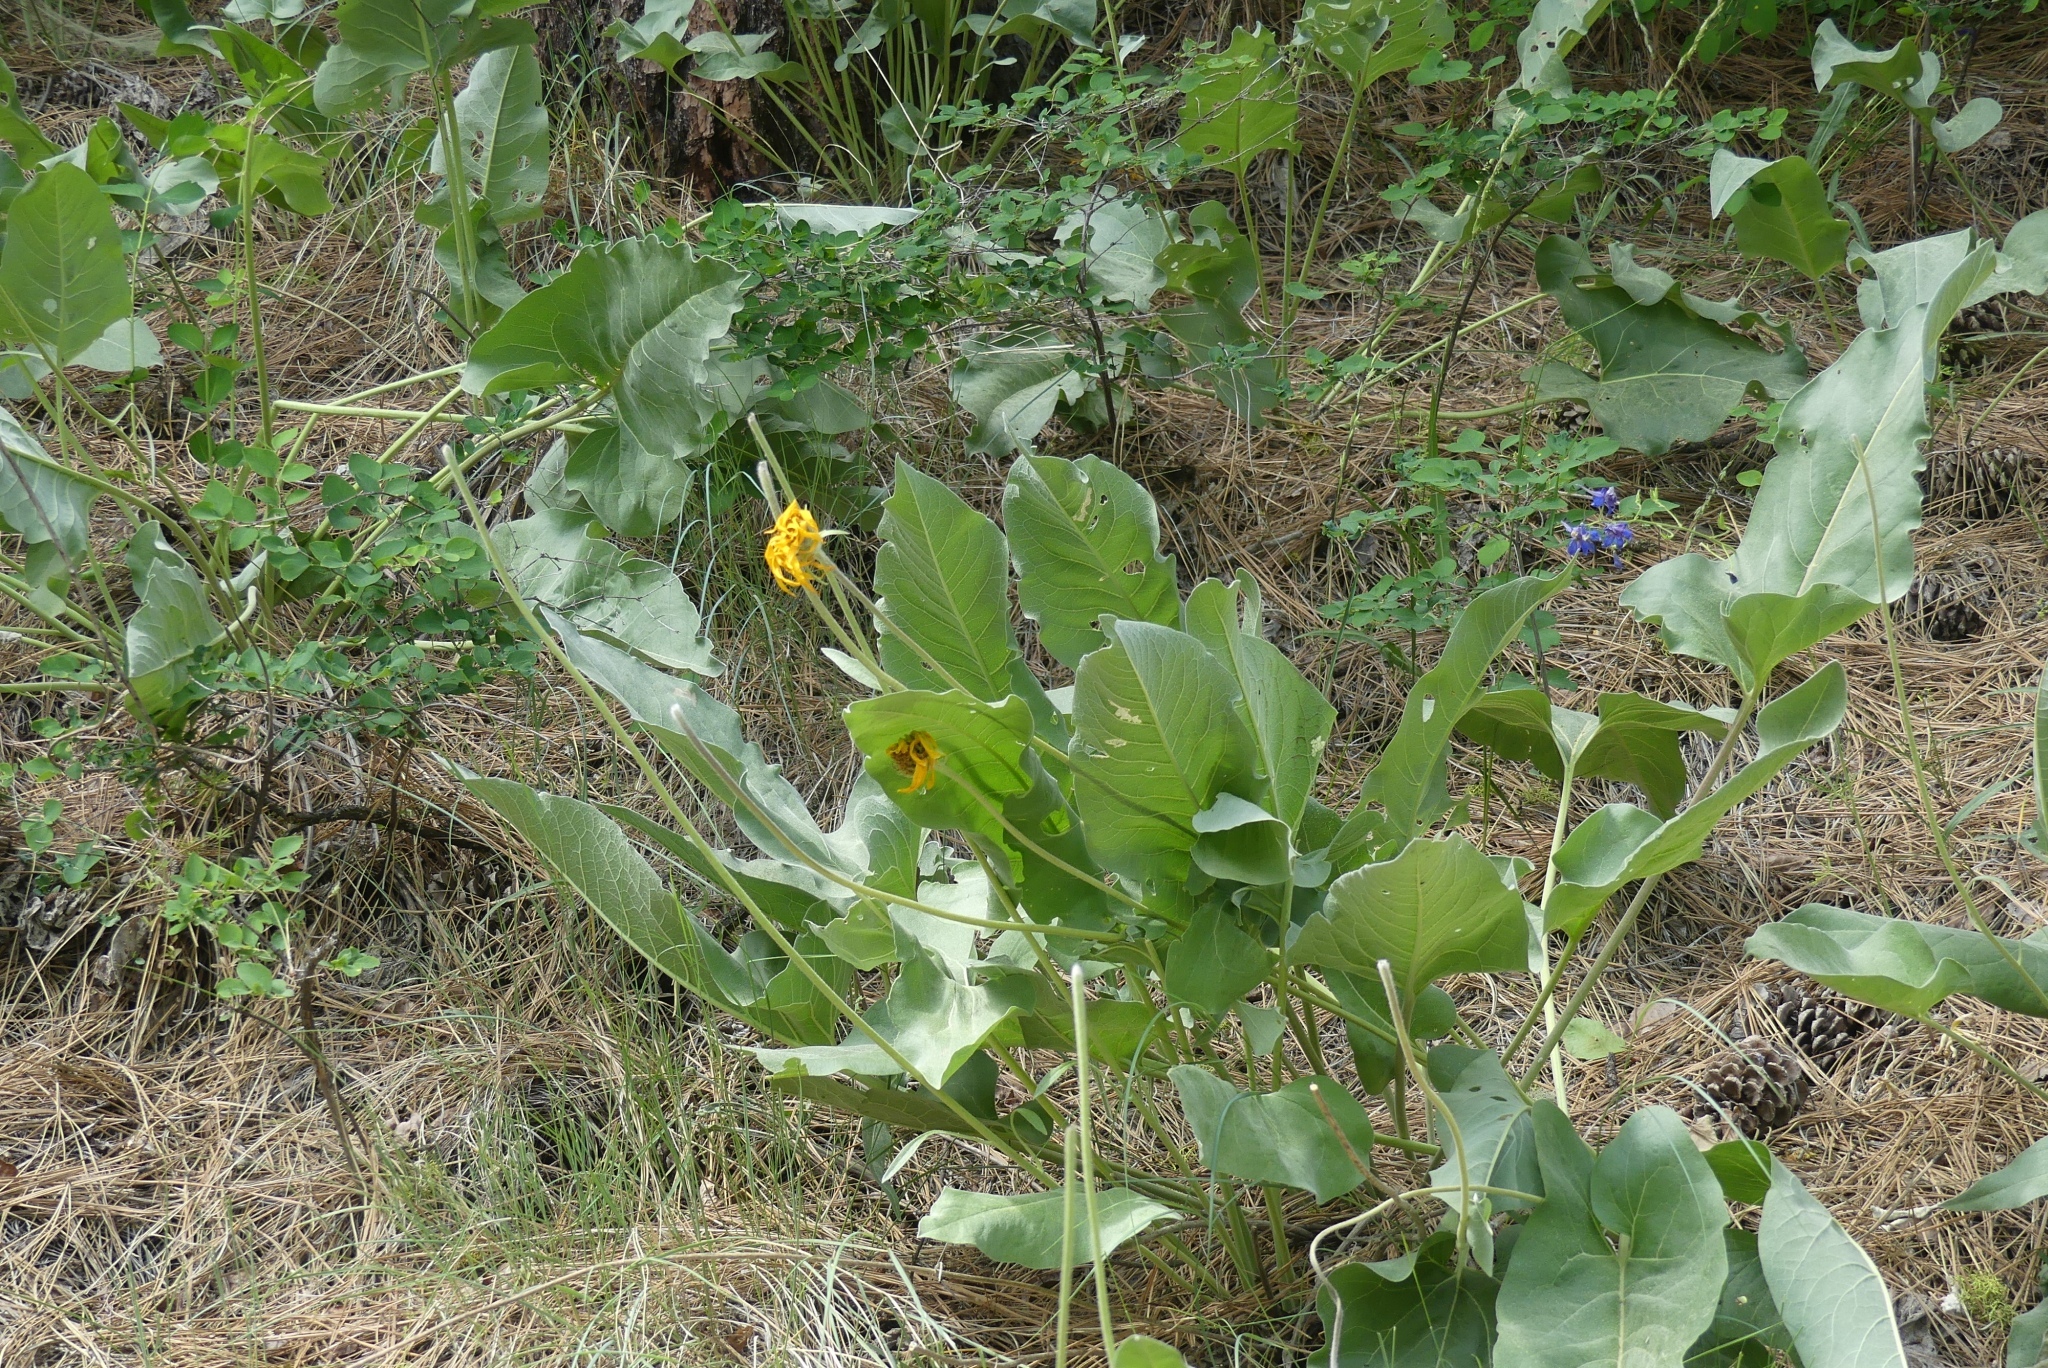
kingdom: Plantae
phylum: Tracheophyta
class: Magnoliopsida
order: Asterales
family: Asteraceae
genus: Wyethia
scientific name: Wyethia sagittata
